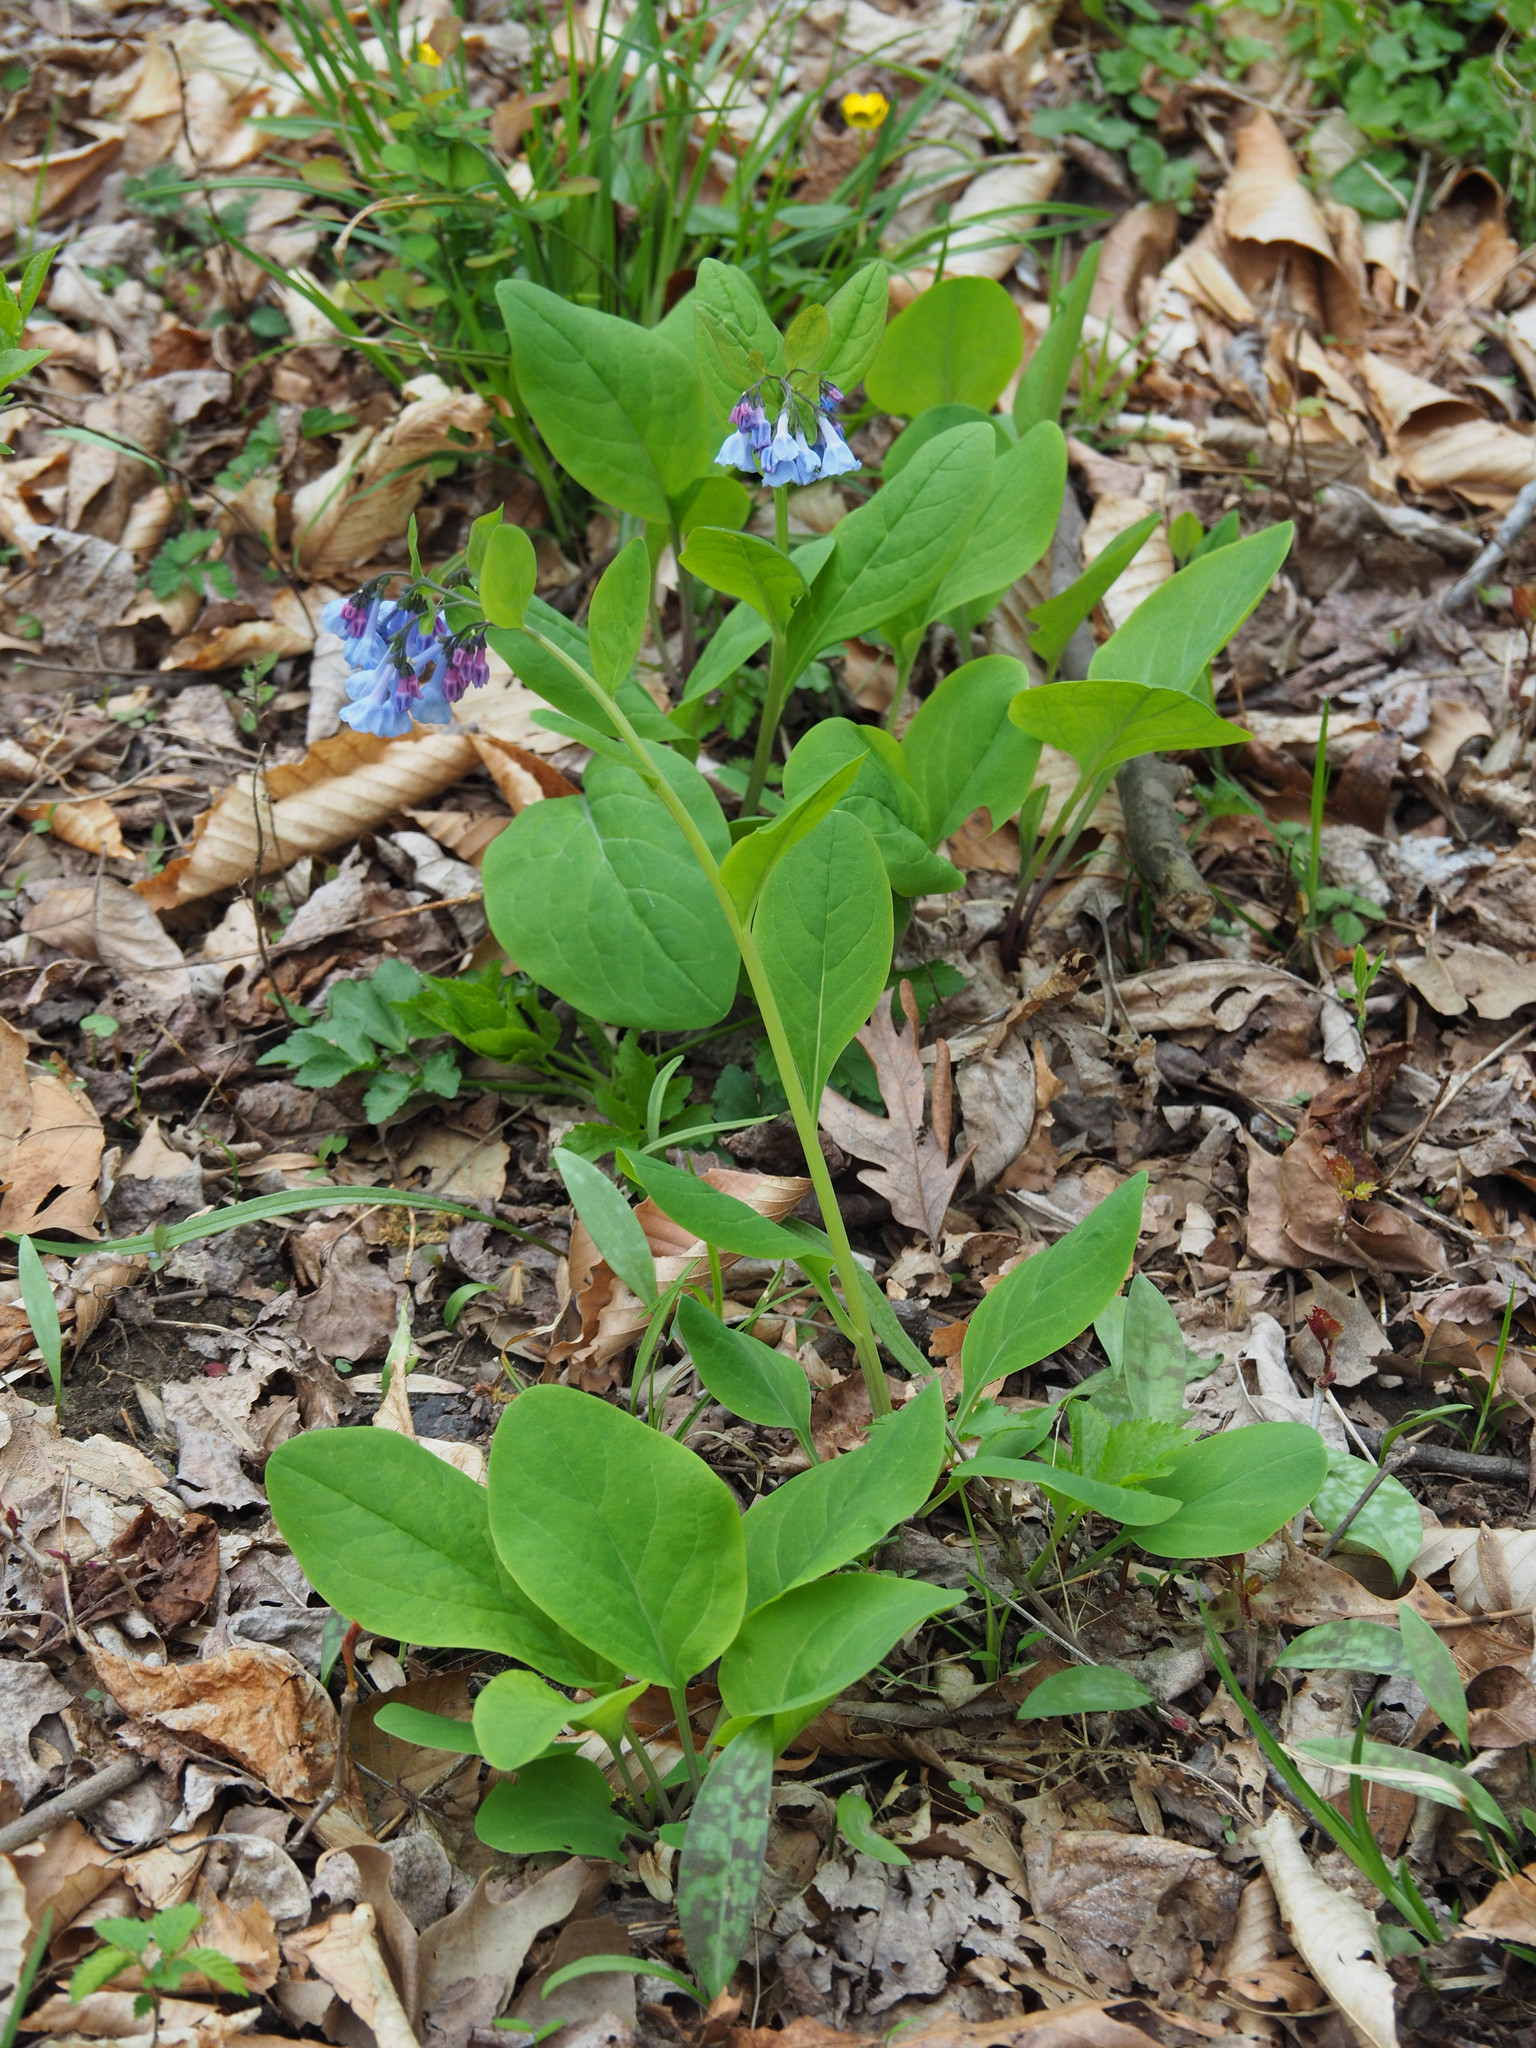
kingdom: Plantae
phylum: Tracheophyta
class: Magnoliopsida
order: Boraginales
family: Boraginaceae
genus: Mertensia
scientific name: Mertensia virginica
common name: Virginia bluebells
